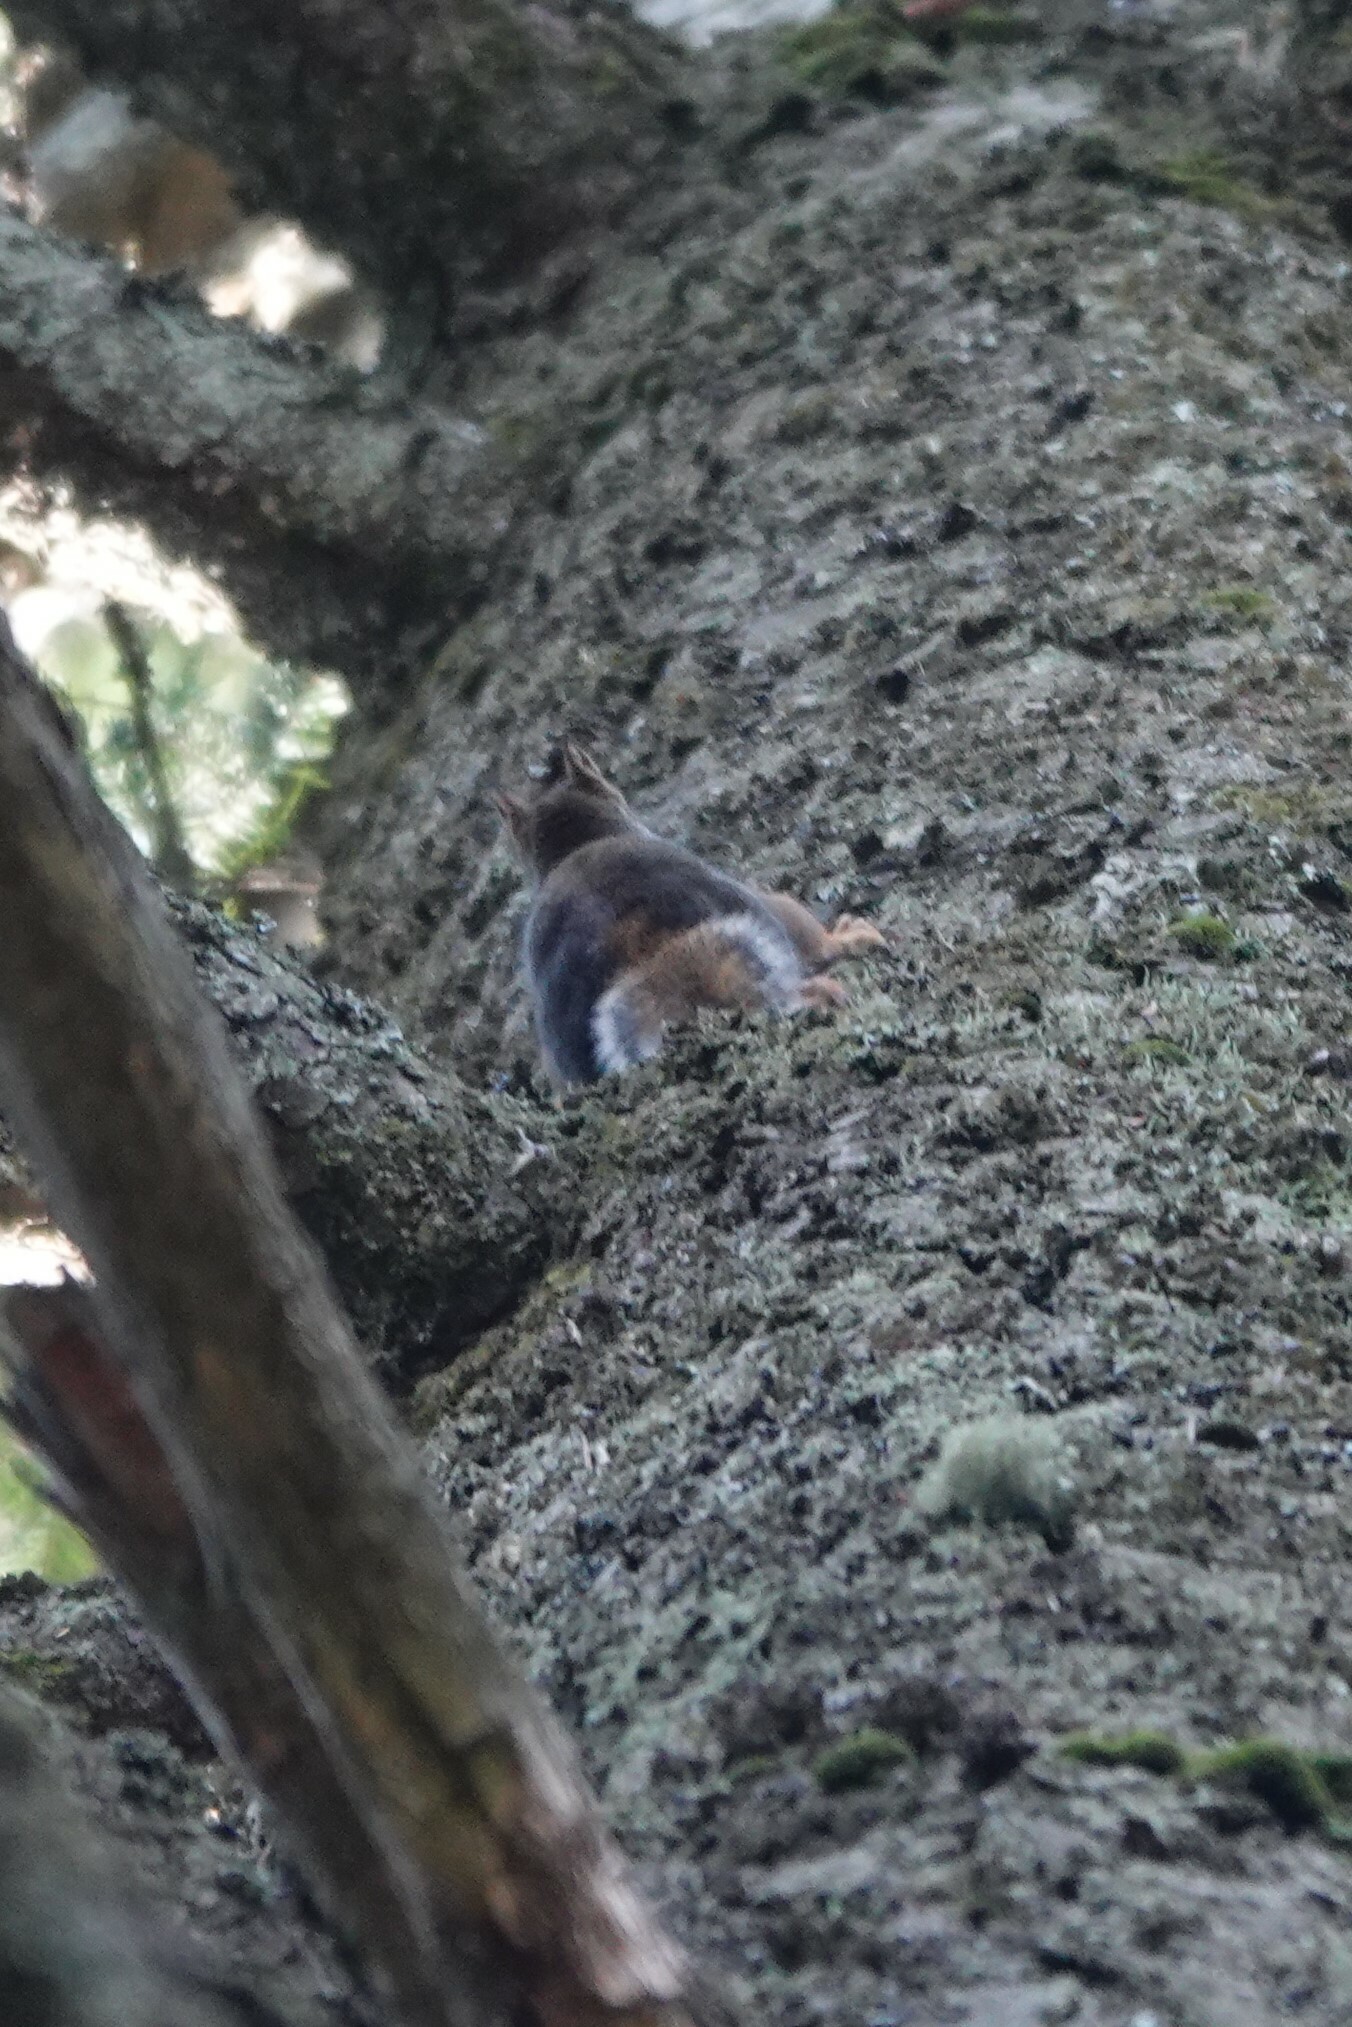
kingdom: Animalia
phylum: Chordata
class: Mammalia
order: Rodentia
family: Sciuridae
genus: Tamiasciurus
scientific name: Tamiasciurus douglasii
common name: Douglas's squirrel
